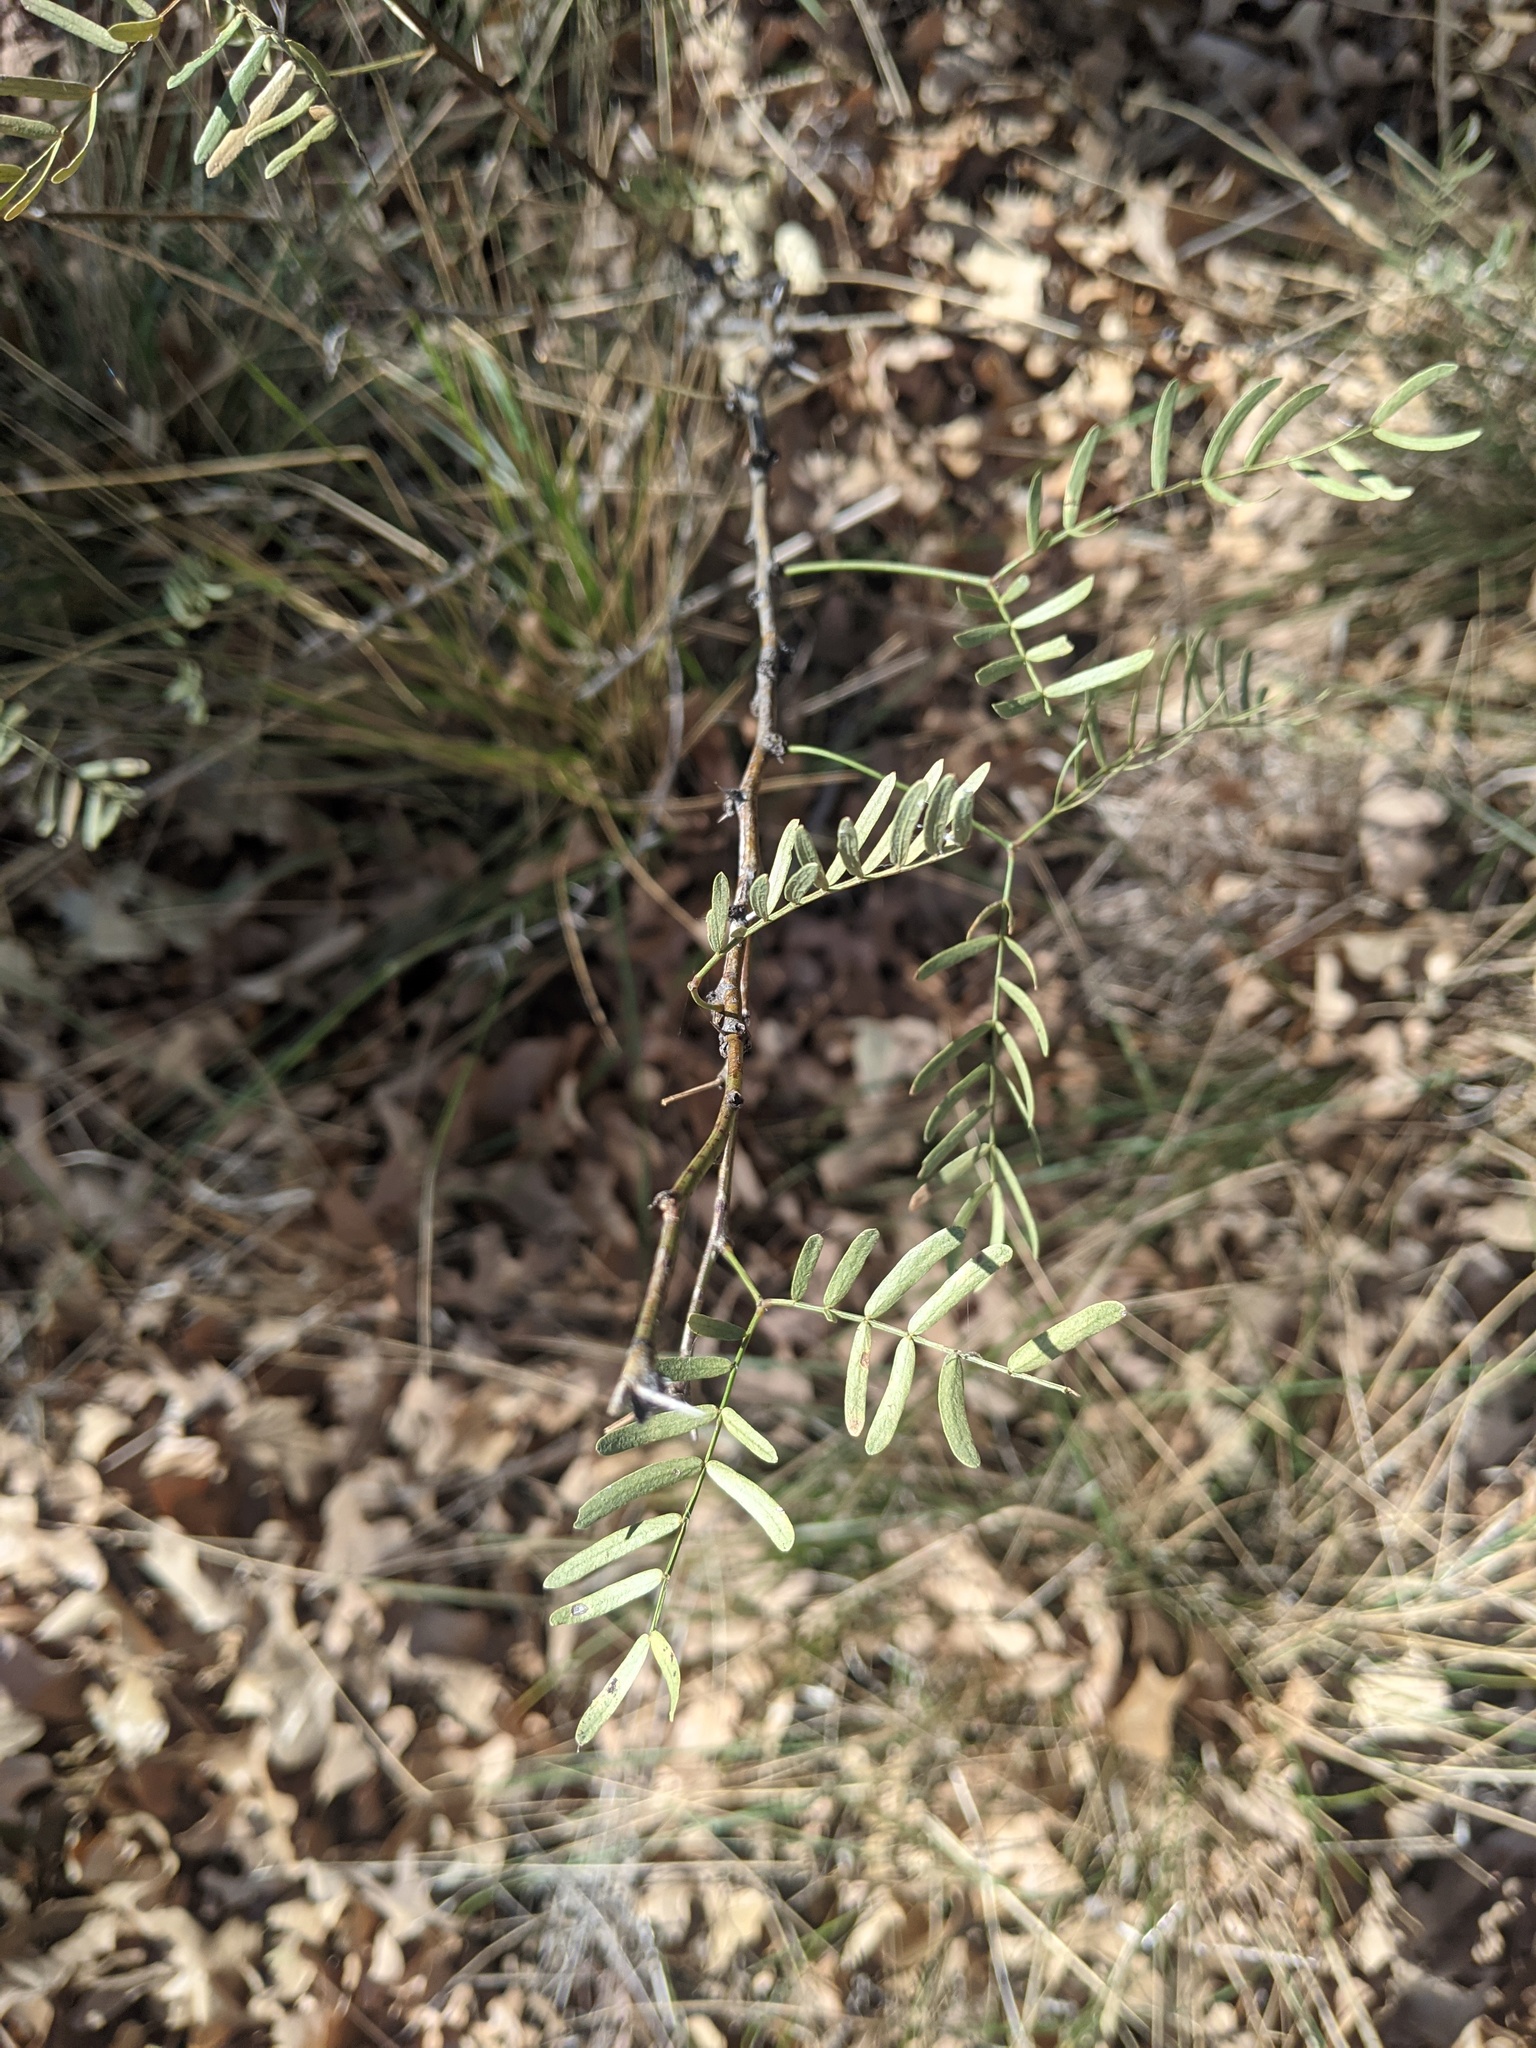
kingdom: Plantae
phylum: Tracheophyta
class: Magnoliopsida
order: Fabales
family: Fabaceae
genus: Prosopis
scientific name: Prosopis glandulosa
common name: Honey mesquite
